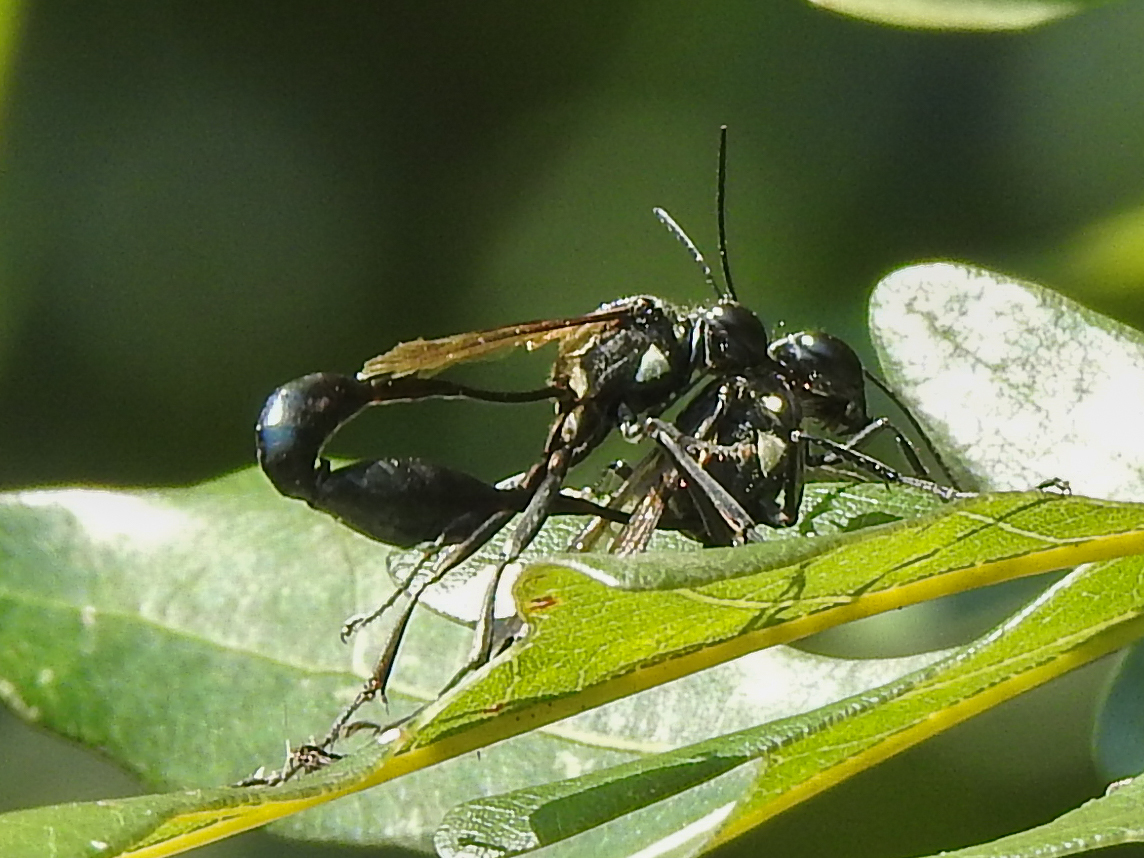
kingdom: Animalia
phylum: Arthropoda
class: Insecta
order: Hymenoptera
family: Sphecidae
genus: Eremnophila
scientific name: Eremnophila aureonotata
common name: Gold-marked thread-waisted wasp
